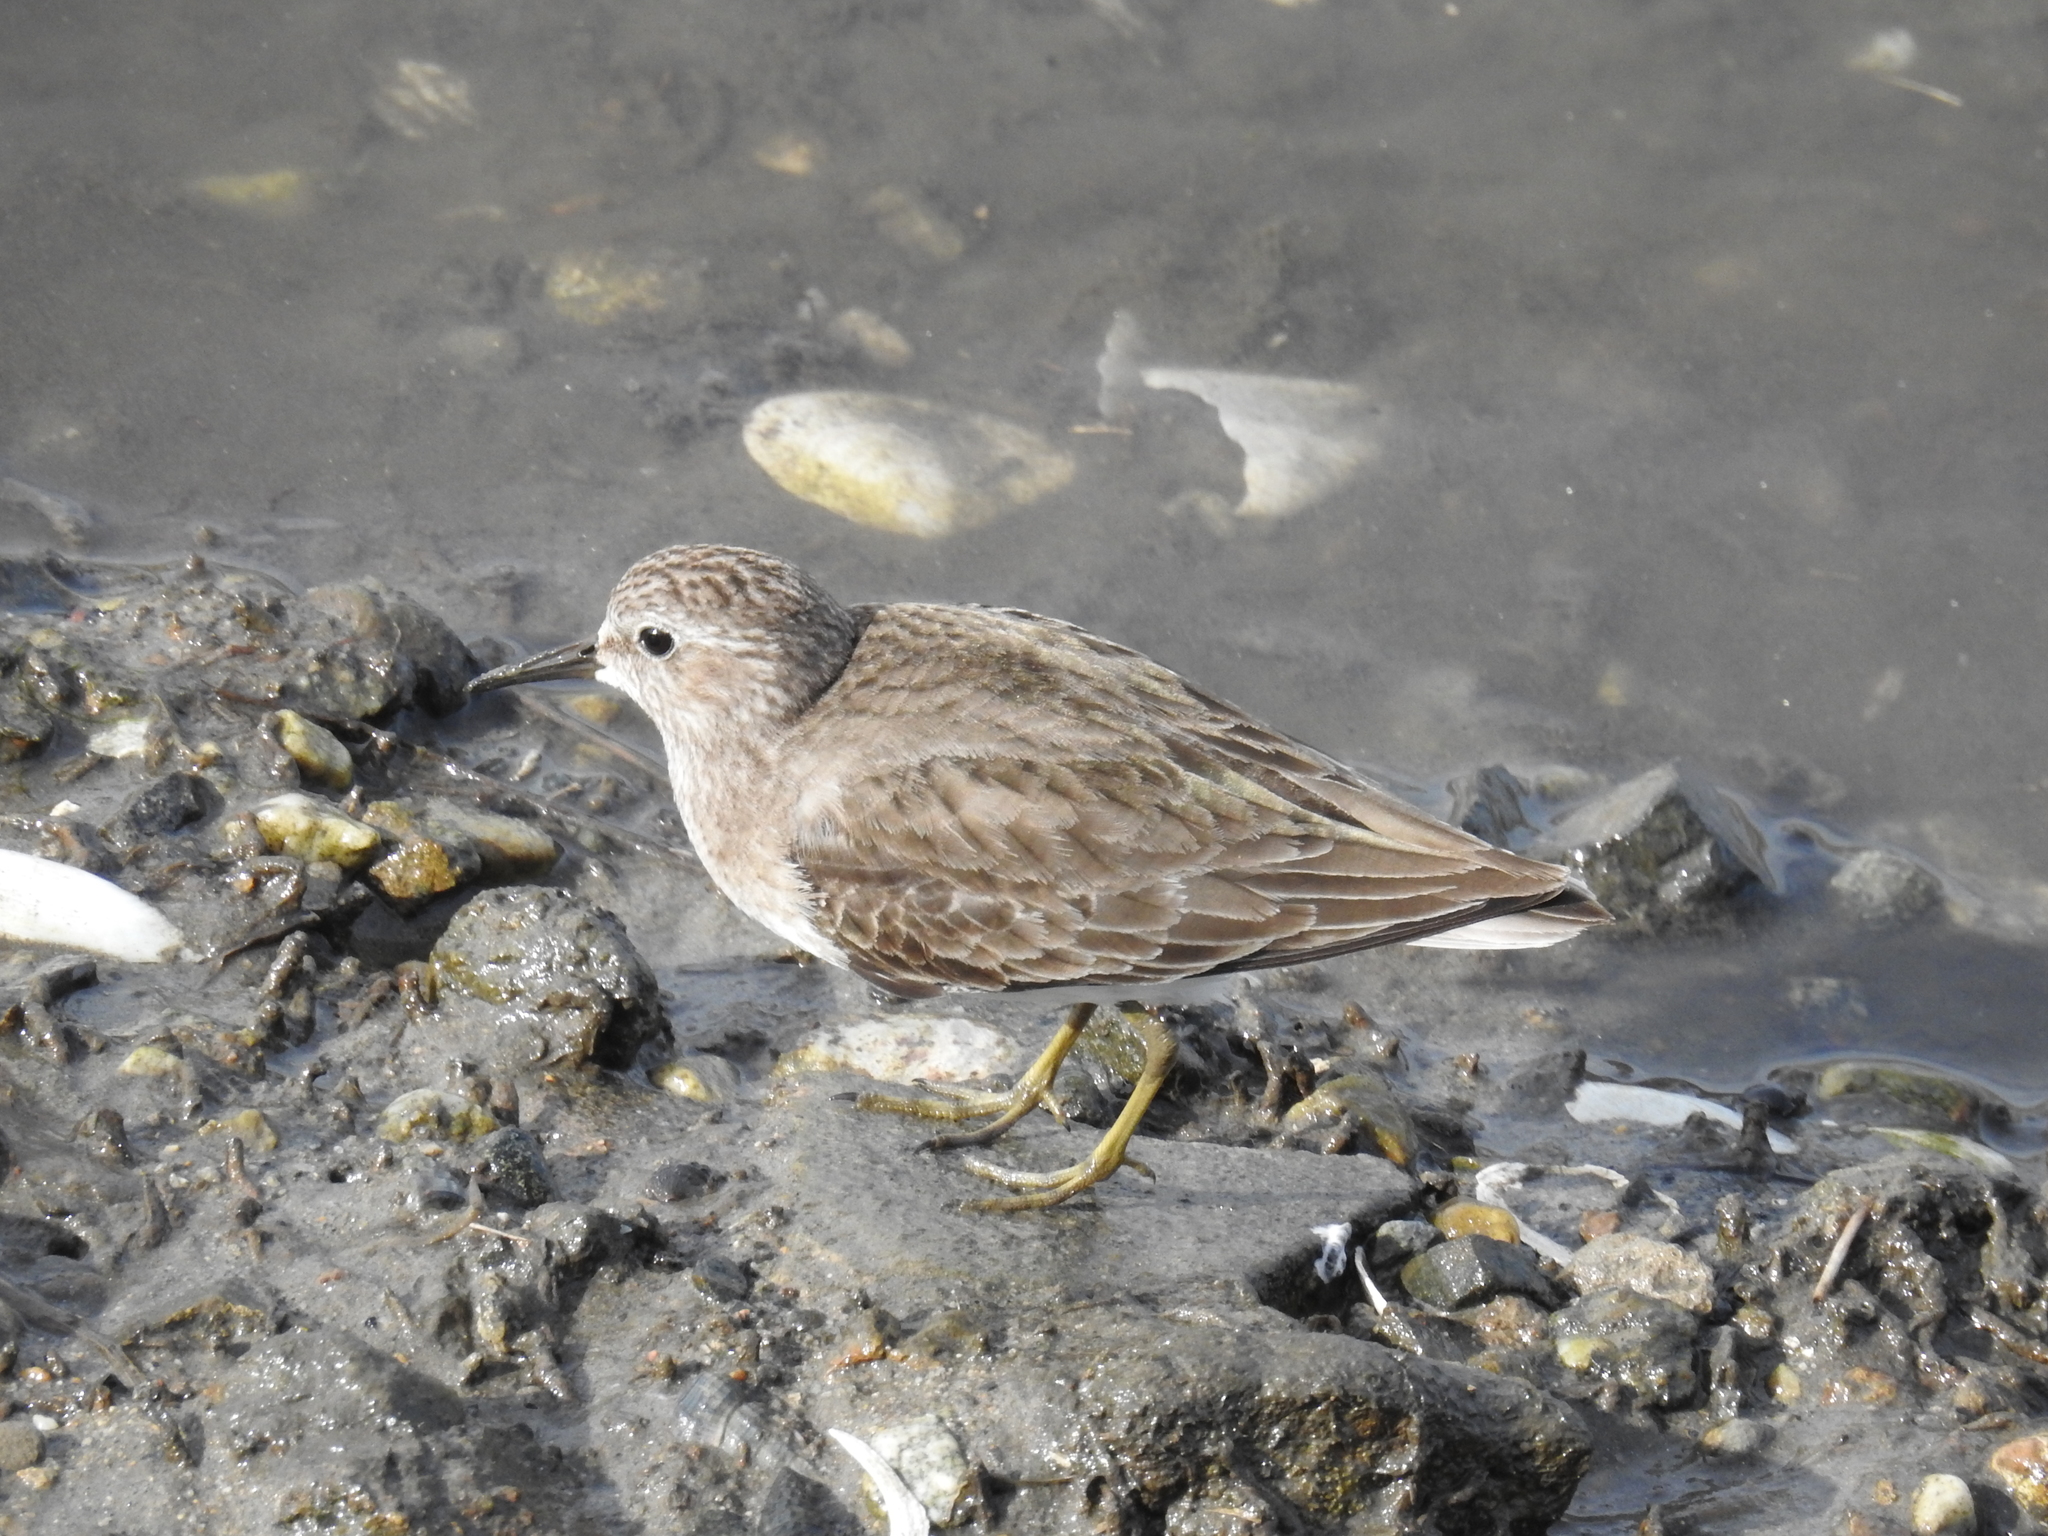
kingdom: Animalia
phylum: Chordata
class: Aves
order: Charadriiformes
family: Scolopacidae
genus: Calidris
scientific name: Calidris minutilla
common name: Least sandpiper
